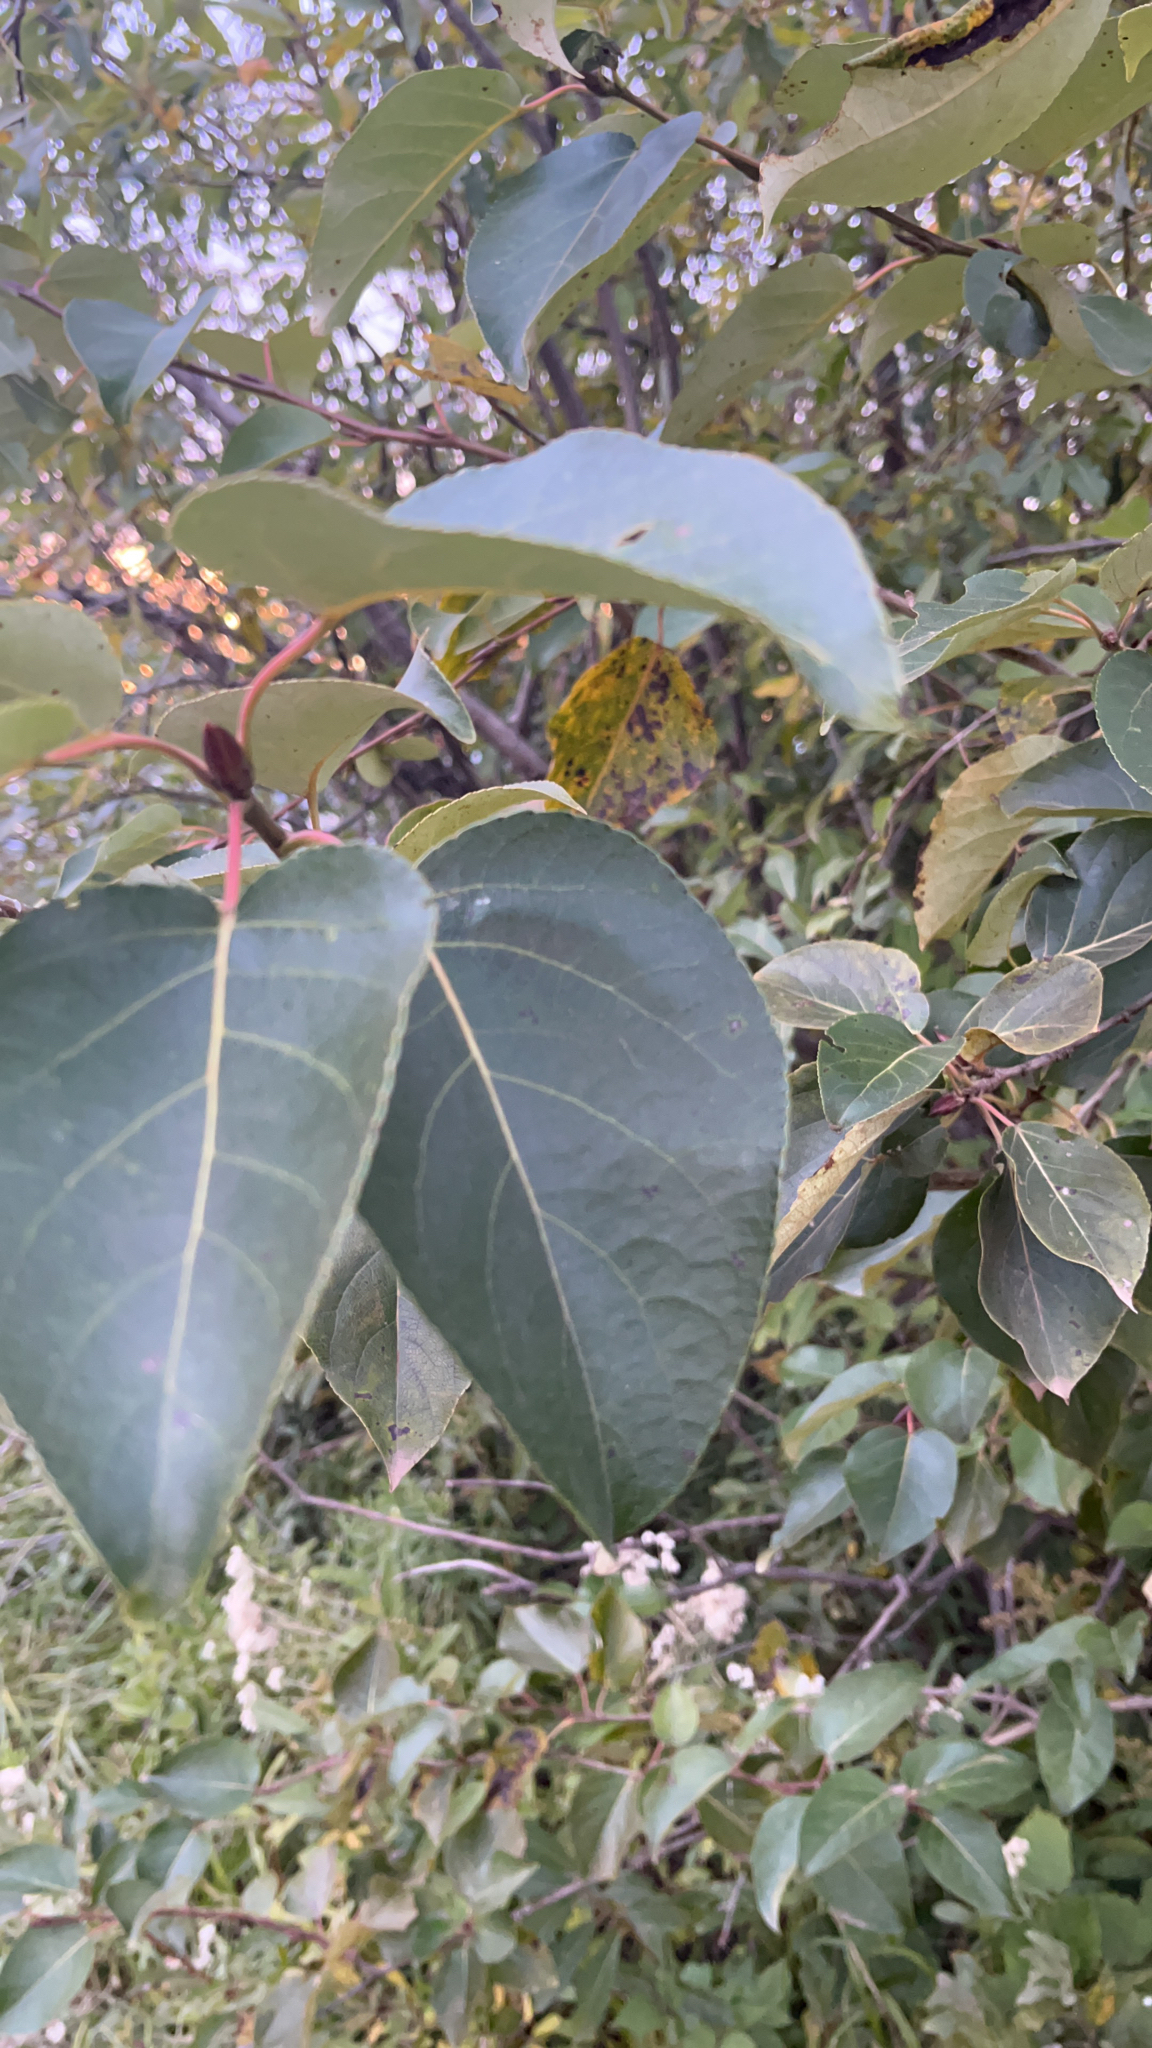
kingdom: Plantae
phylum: Tracheophyta
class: Magnoliopsida
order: Malpighiales
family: Salicaceae
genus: Populus
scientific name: Populus balsamifera
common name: Balsam poplar
